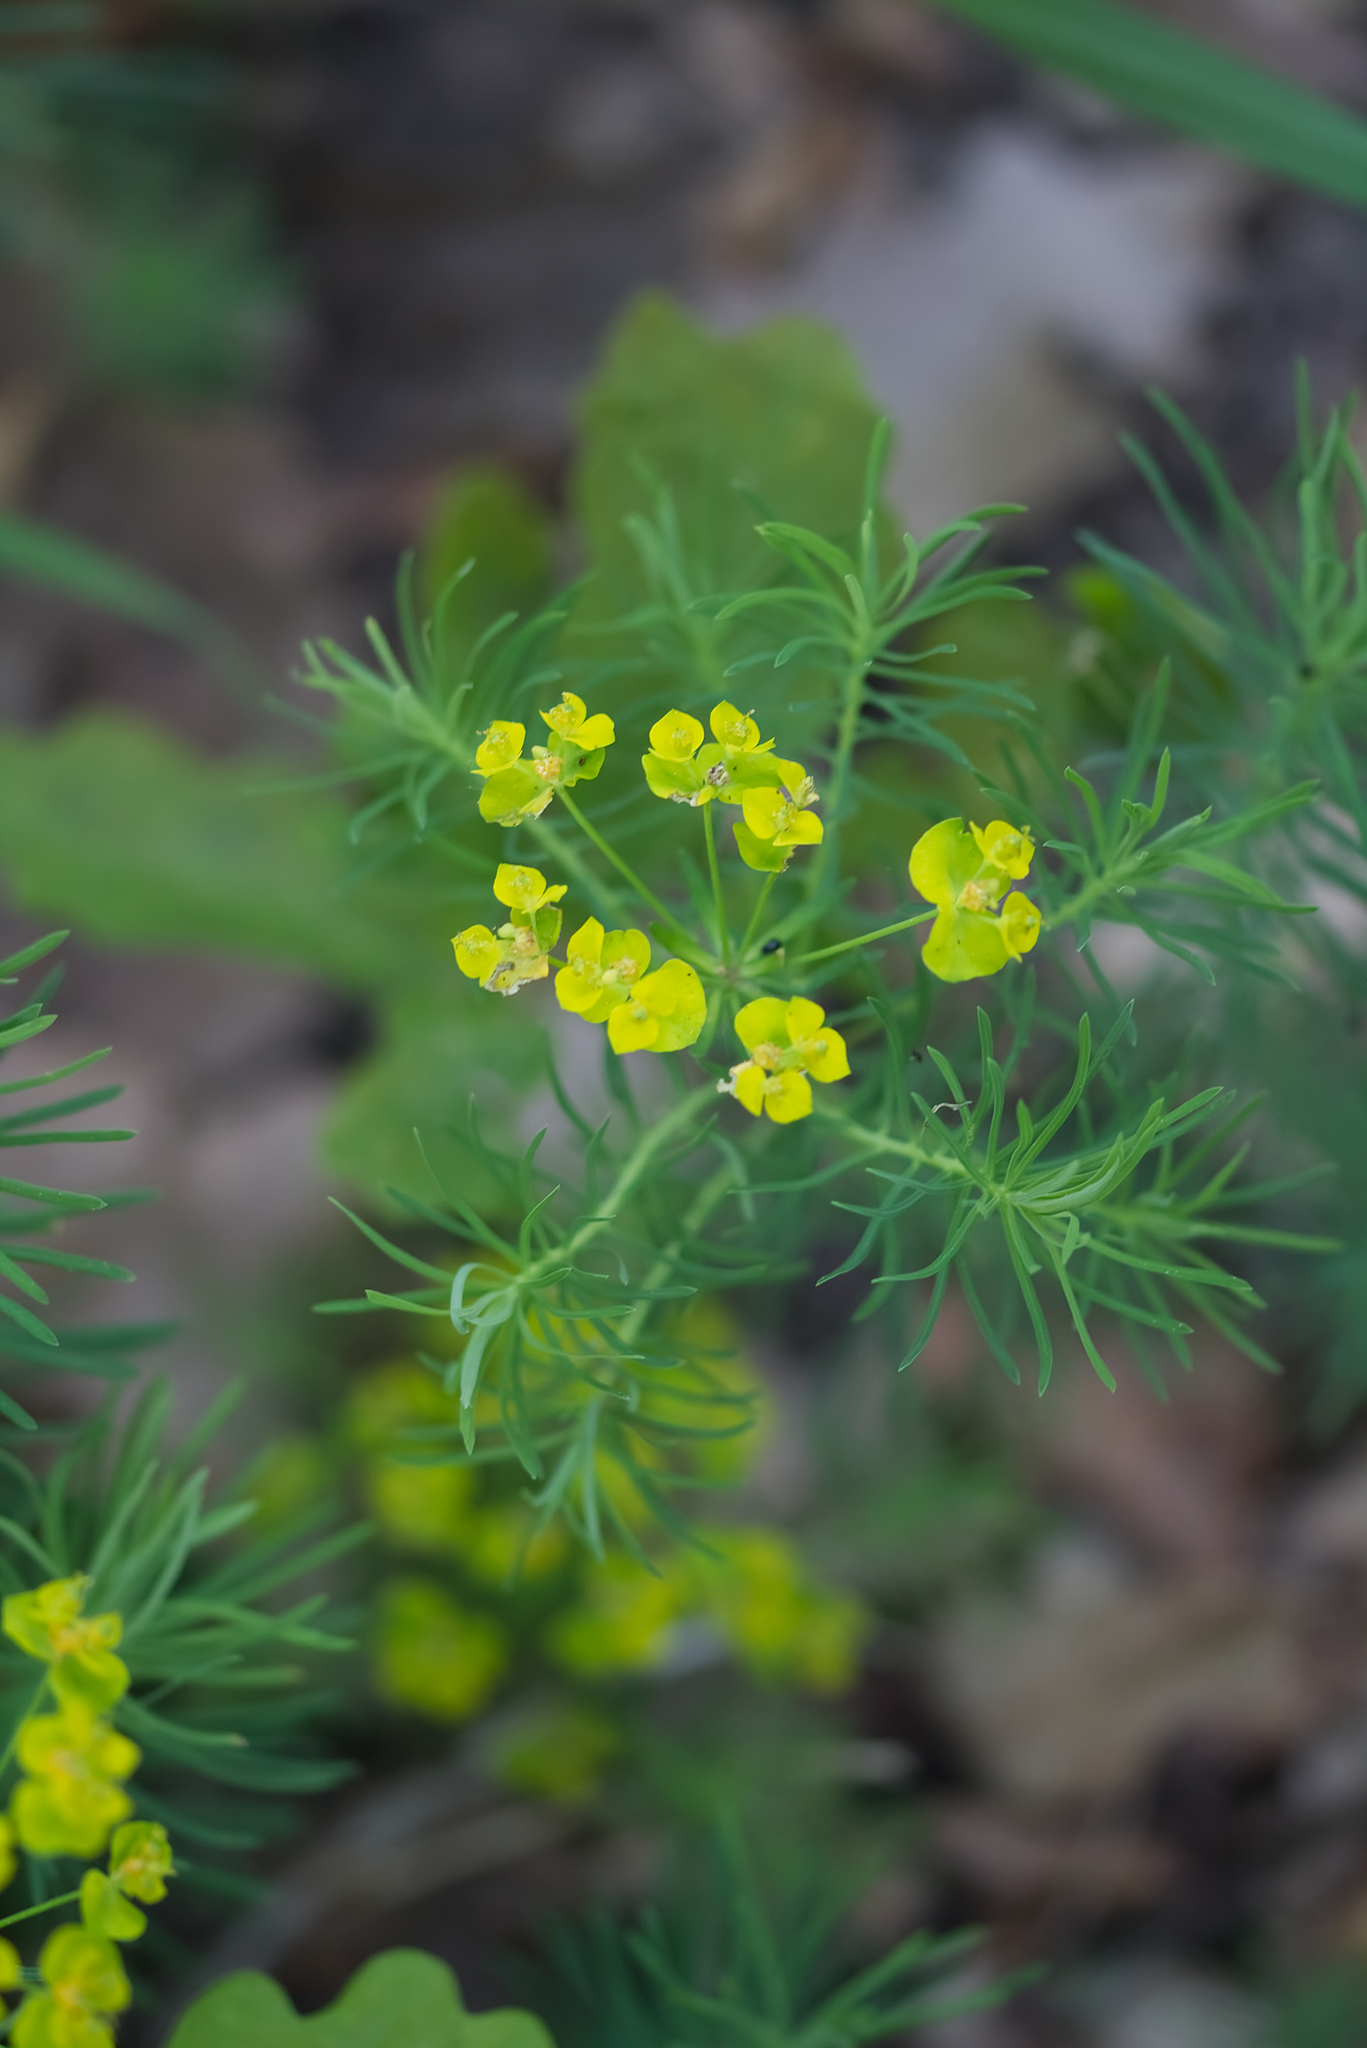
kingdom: Plantae
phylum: Tracheophyta
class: Magnoliopsida
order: Malpighiales
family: Euphorbiaceae
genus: Euphorbia
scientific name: Euphorbia cyparissias
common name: Cypress spurge
